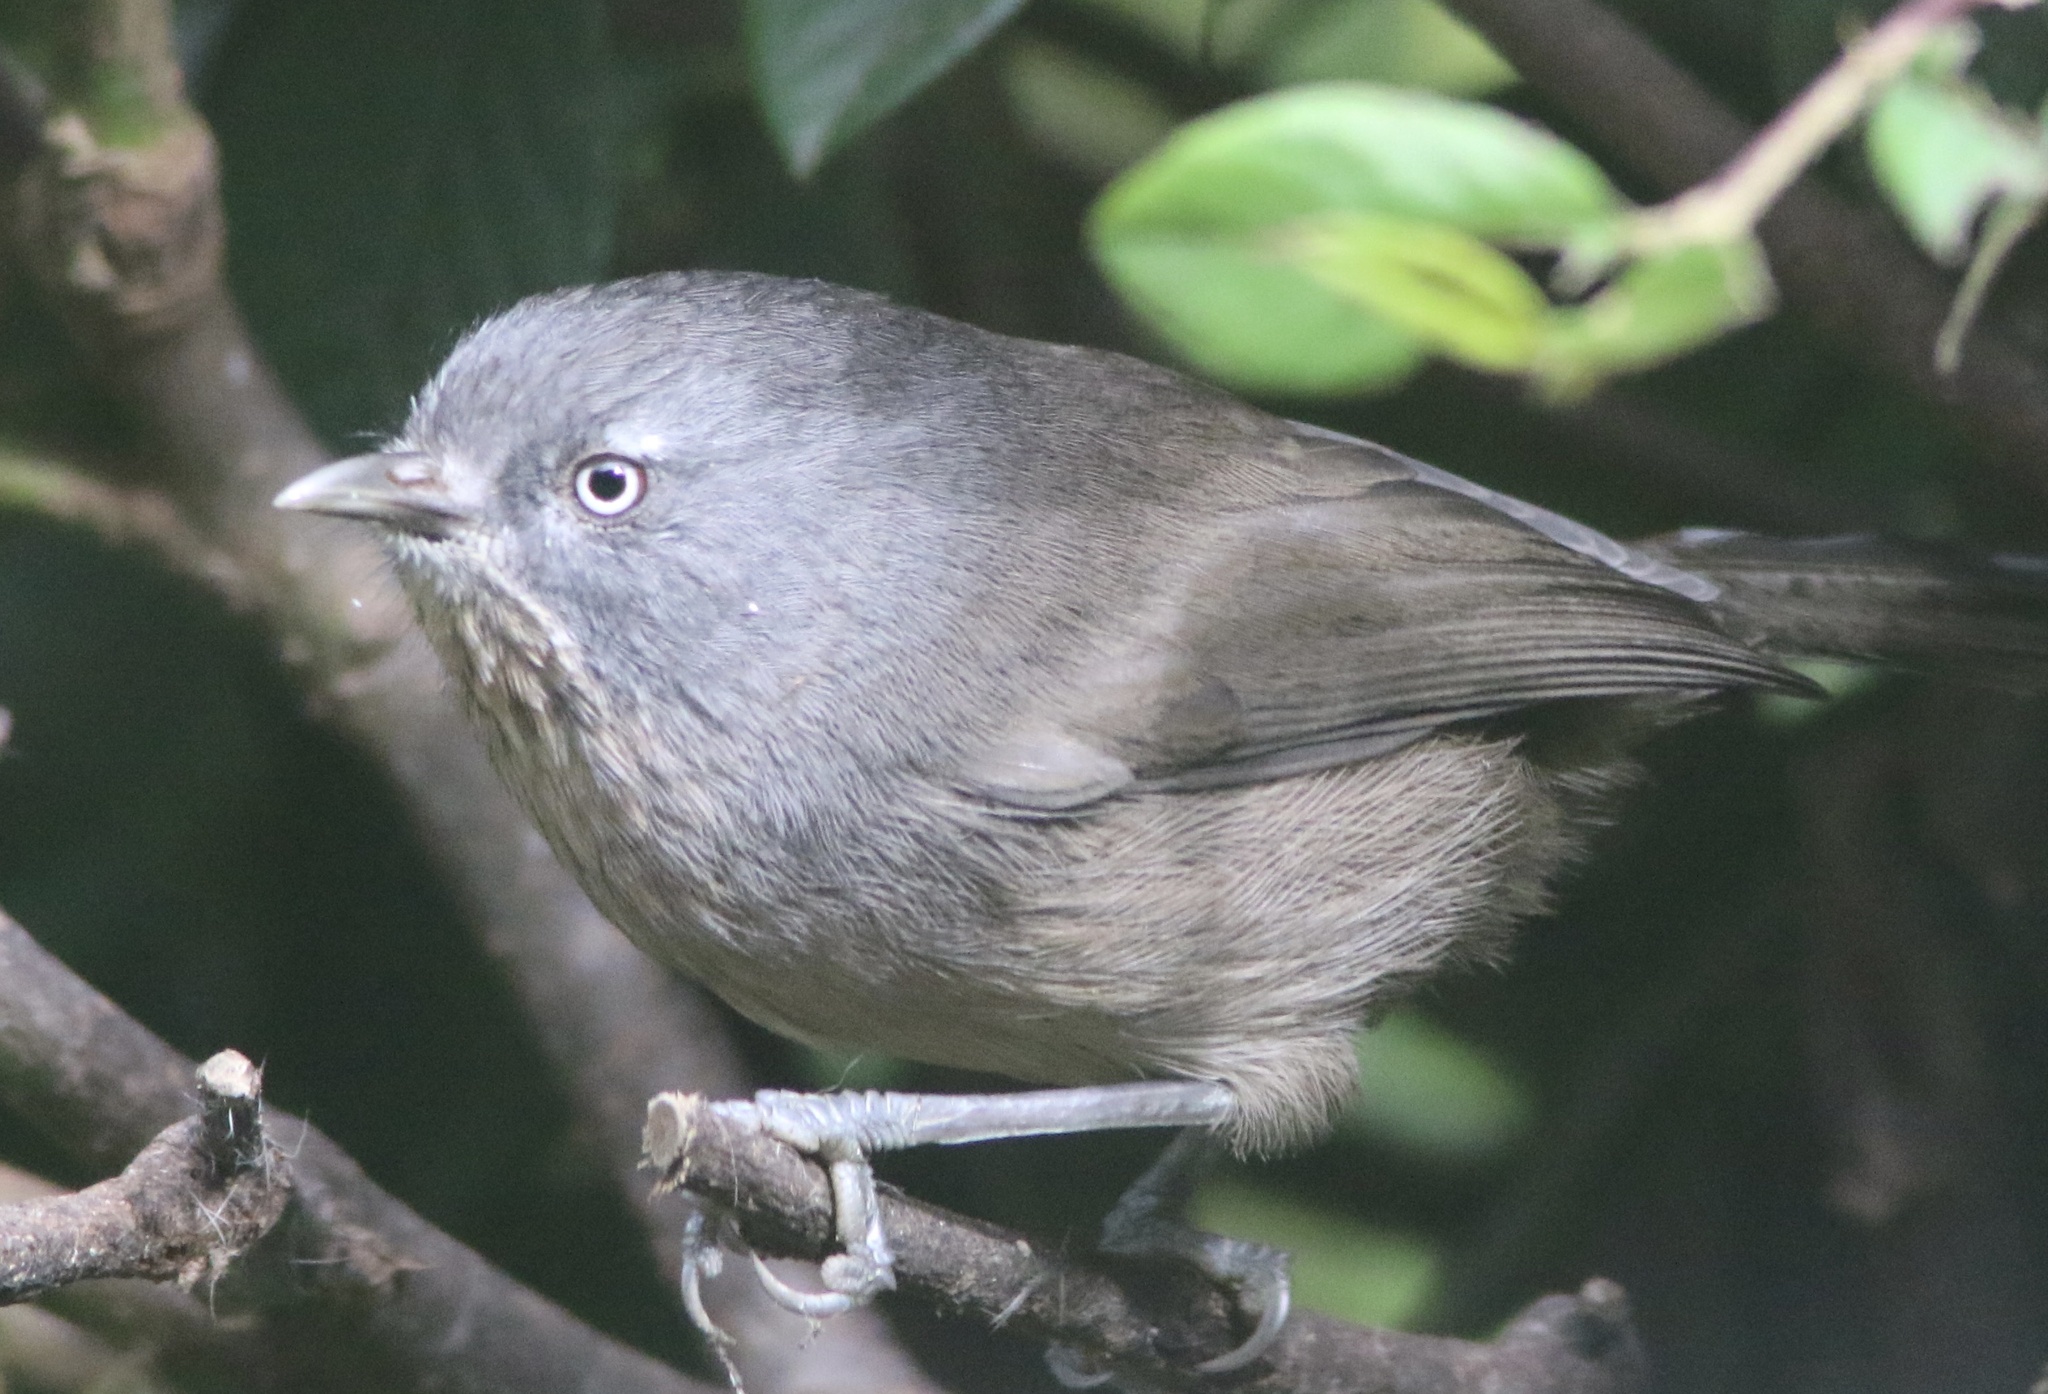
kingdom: Animalia
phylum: Chordata
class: Aves
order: Passeriformes
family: Sylviidae
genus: Chamaea
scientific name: Chamaea fasciata
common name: Wrentit
